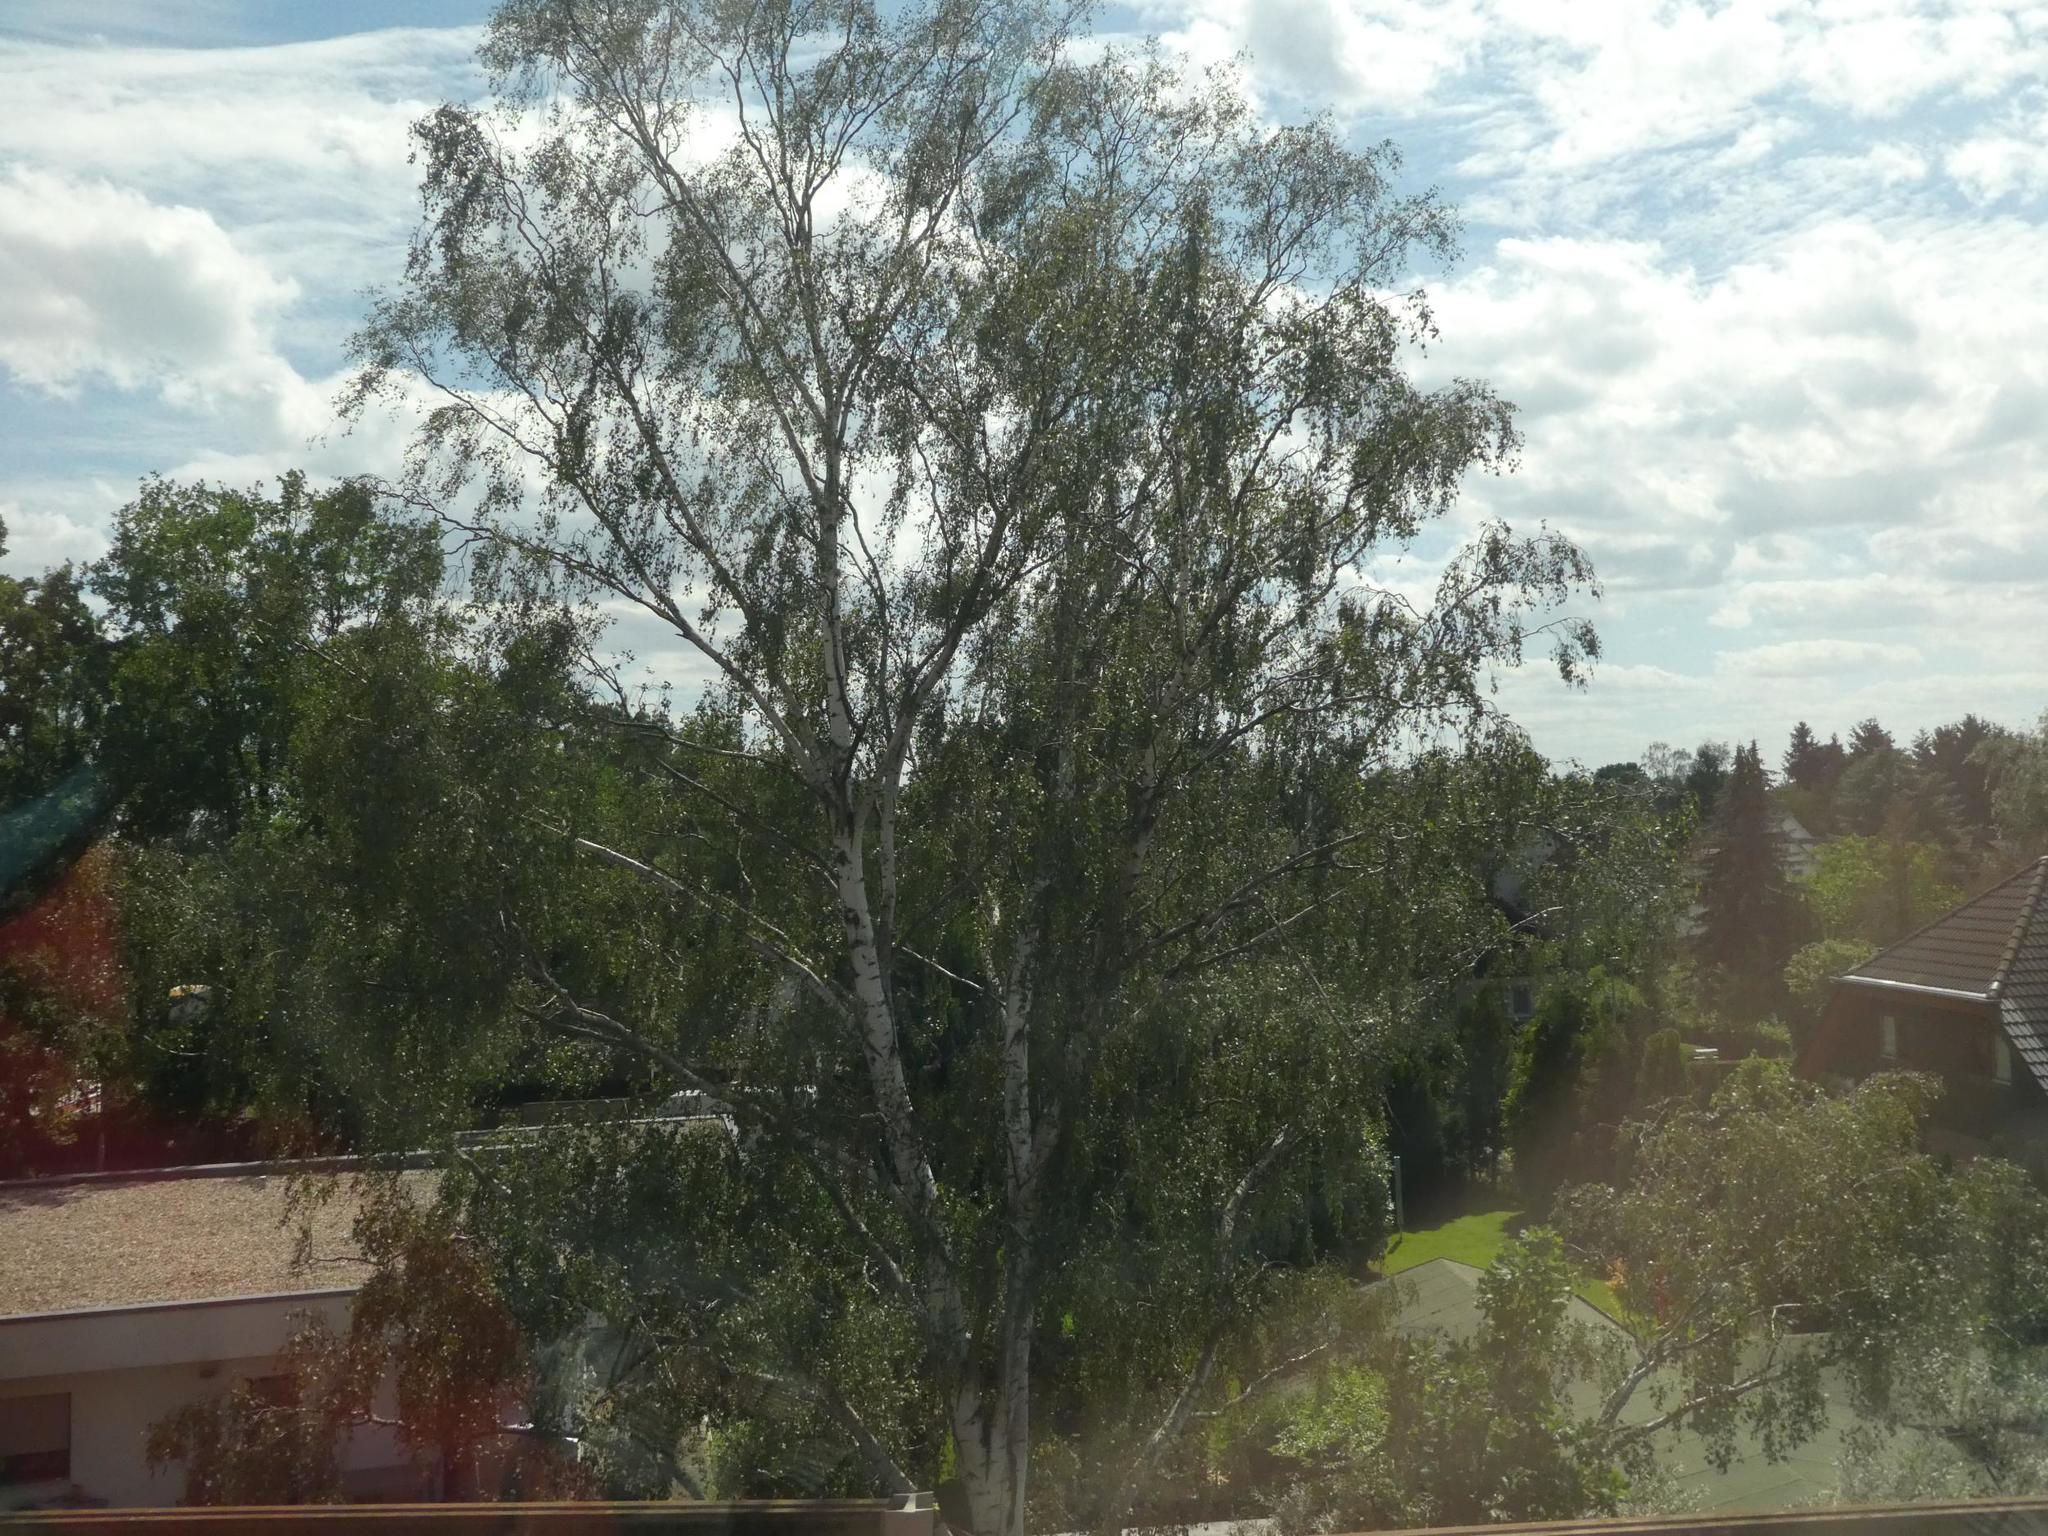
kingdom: Plantae
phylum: Tracheophyta
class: Magnoliopsida
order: Santalales
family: Viscaceae
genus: Viscum
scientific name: Viscum album
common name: Mistletoe
